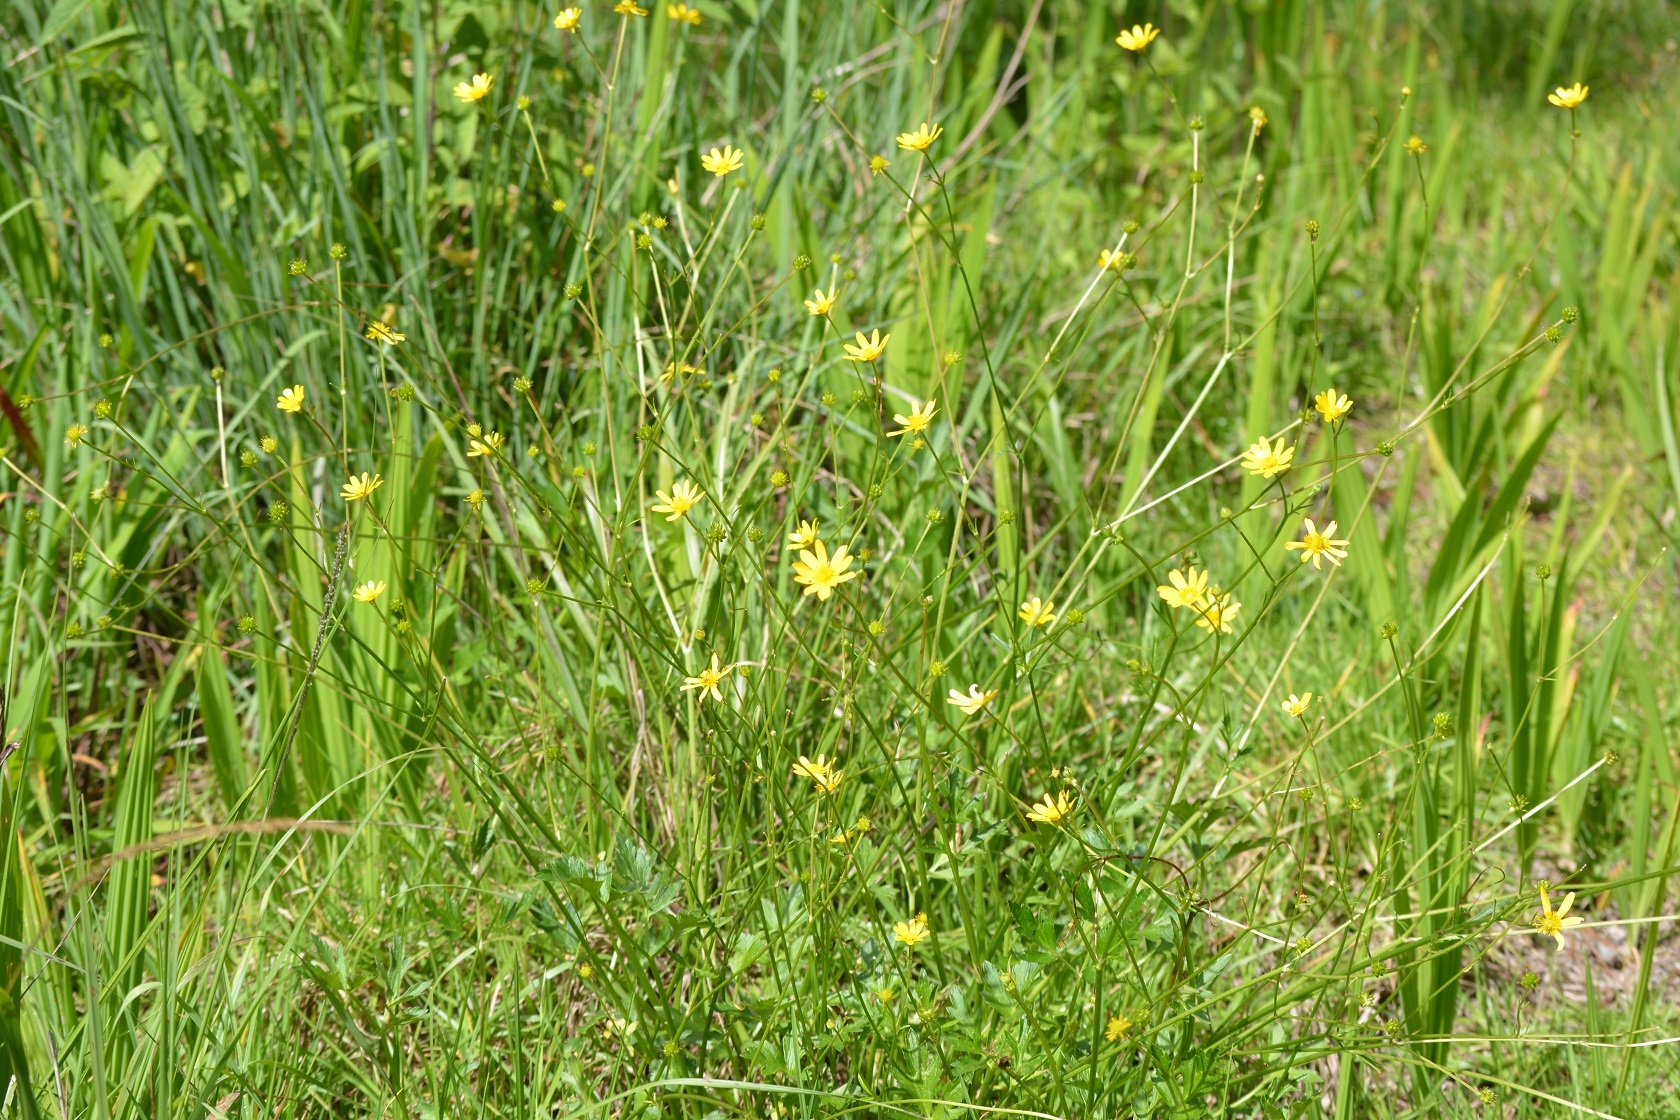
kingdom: Plantae
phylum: Tracheophyta
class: Magnoliopsida
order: Ranunculales
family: Ranunculaceae
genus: Ranunculus
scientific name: Ranunculus petiolaris
